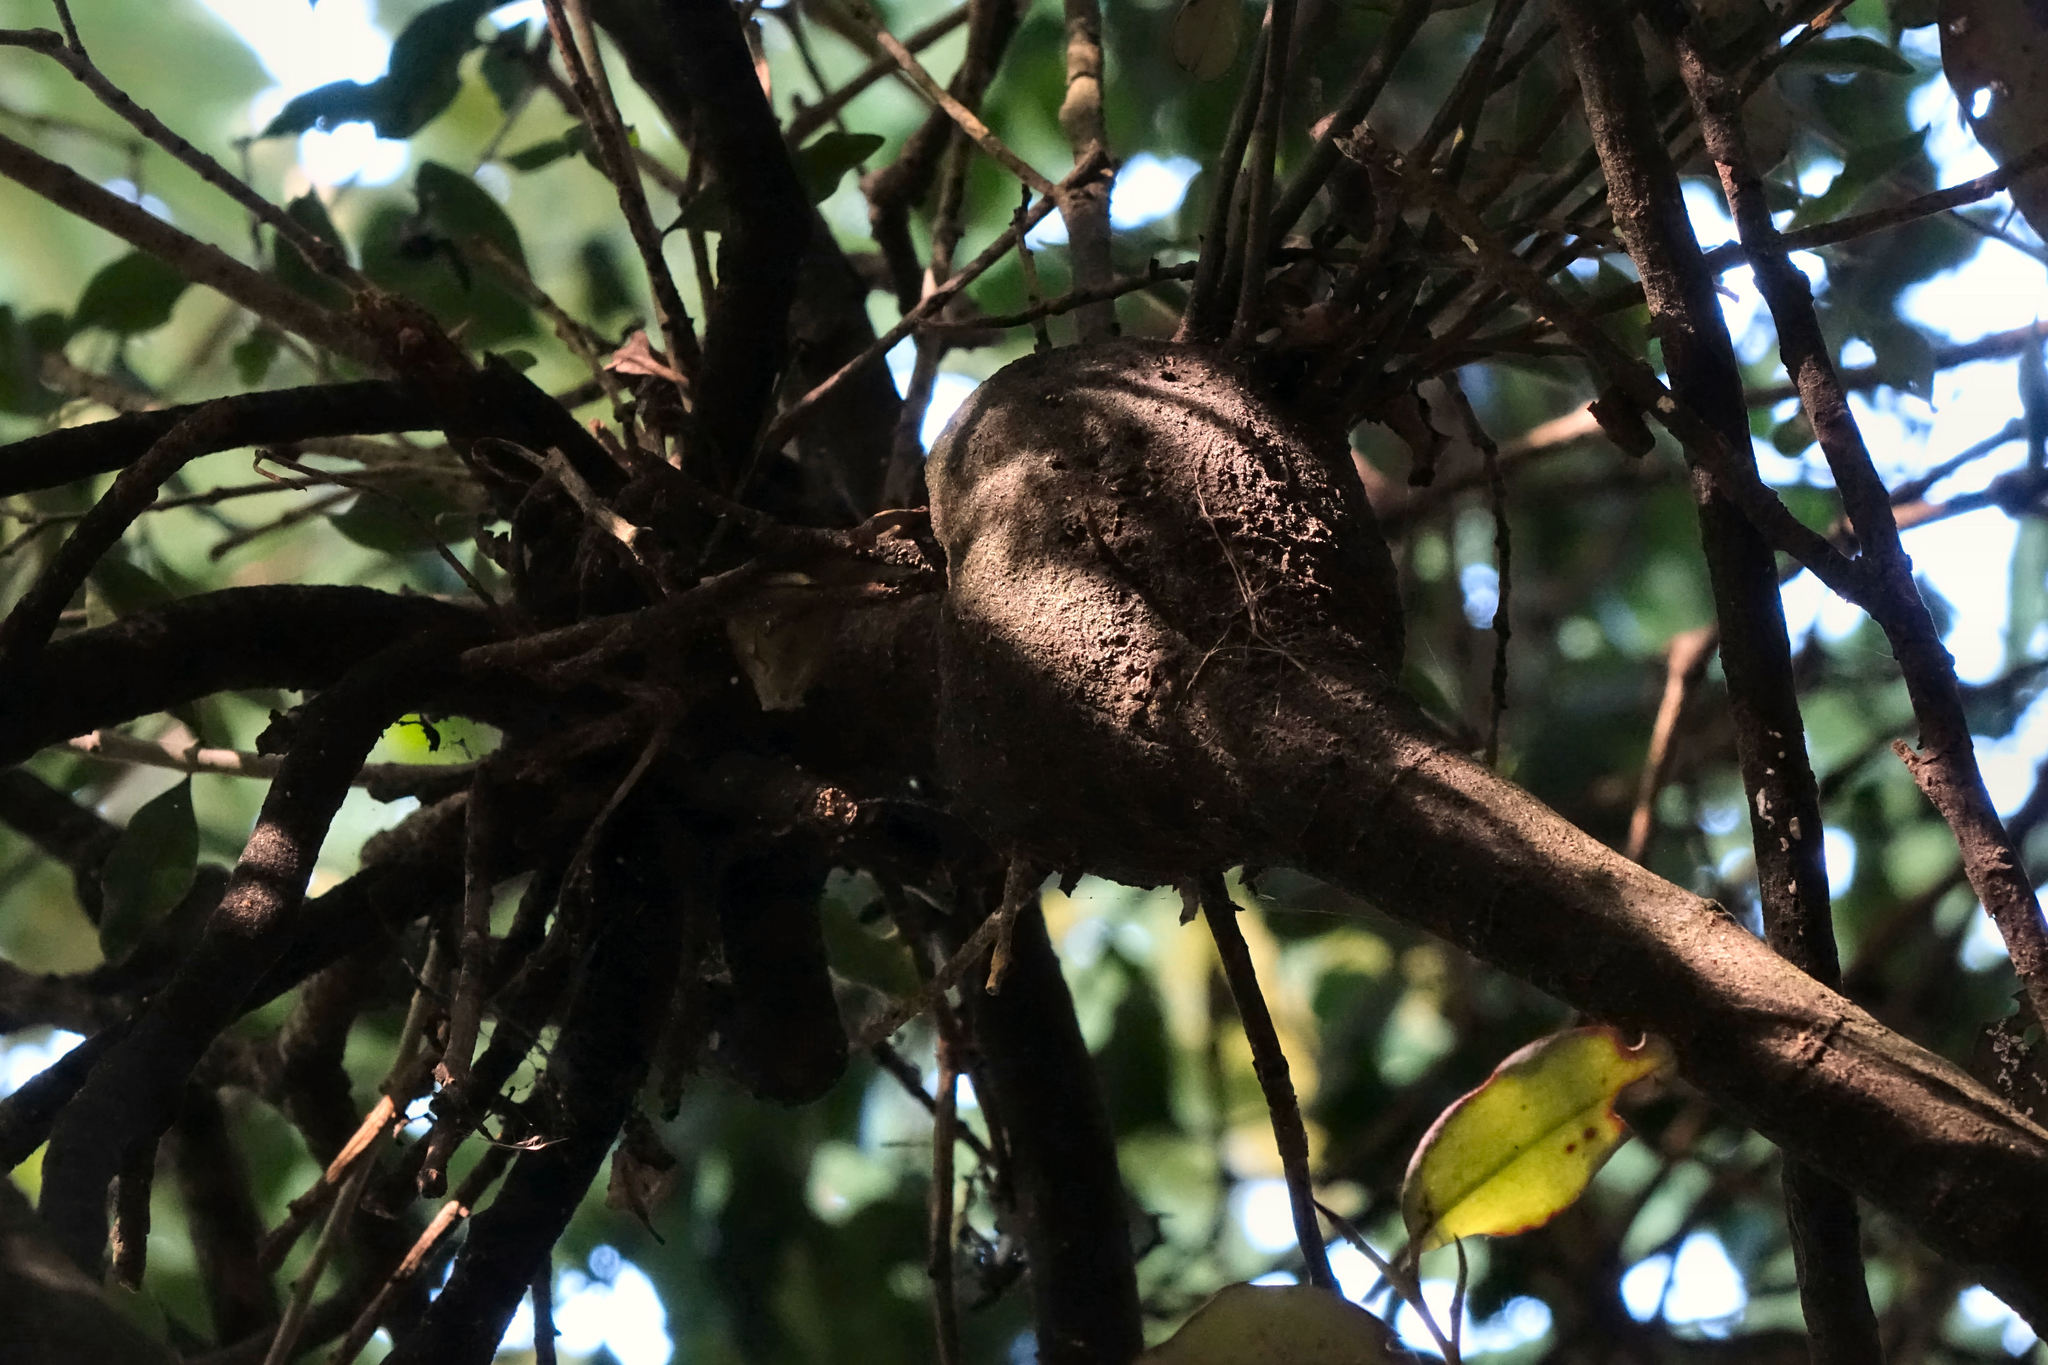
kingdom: Plantae
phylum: Tracheophyta
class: Magnoliopsida
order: Santalales
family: Loranthaceae
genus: Tupeia
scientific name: Tupeia antarctica
